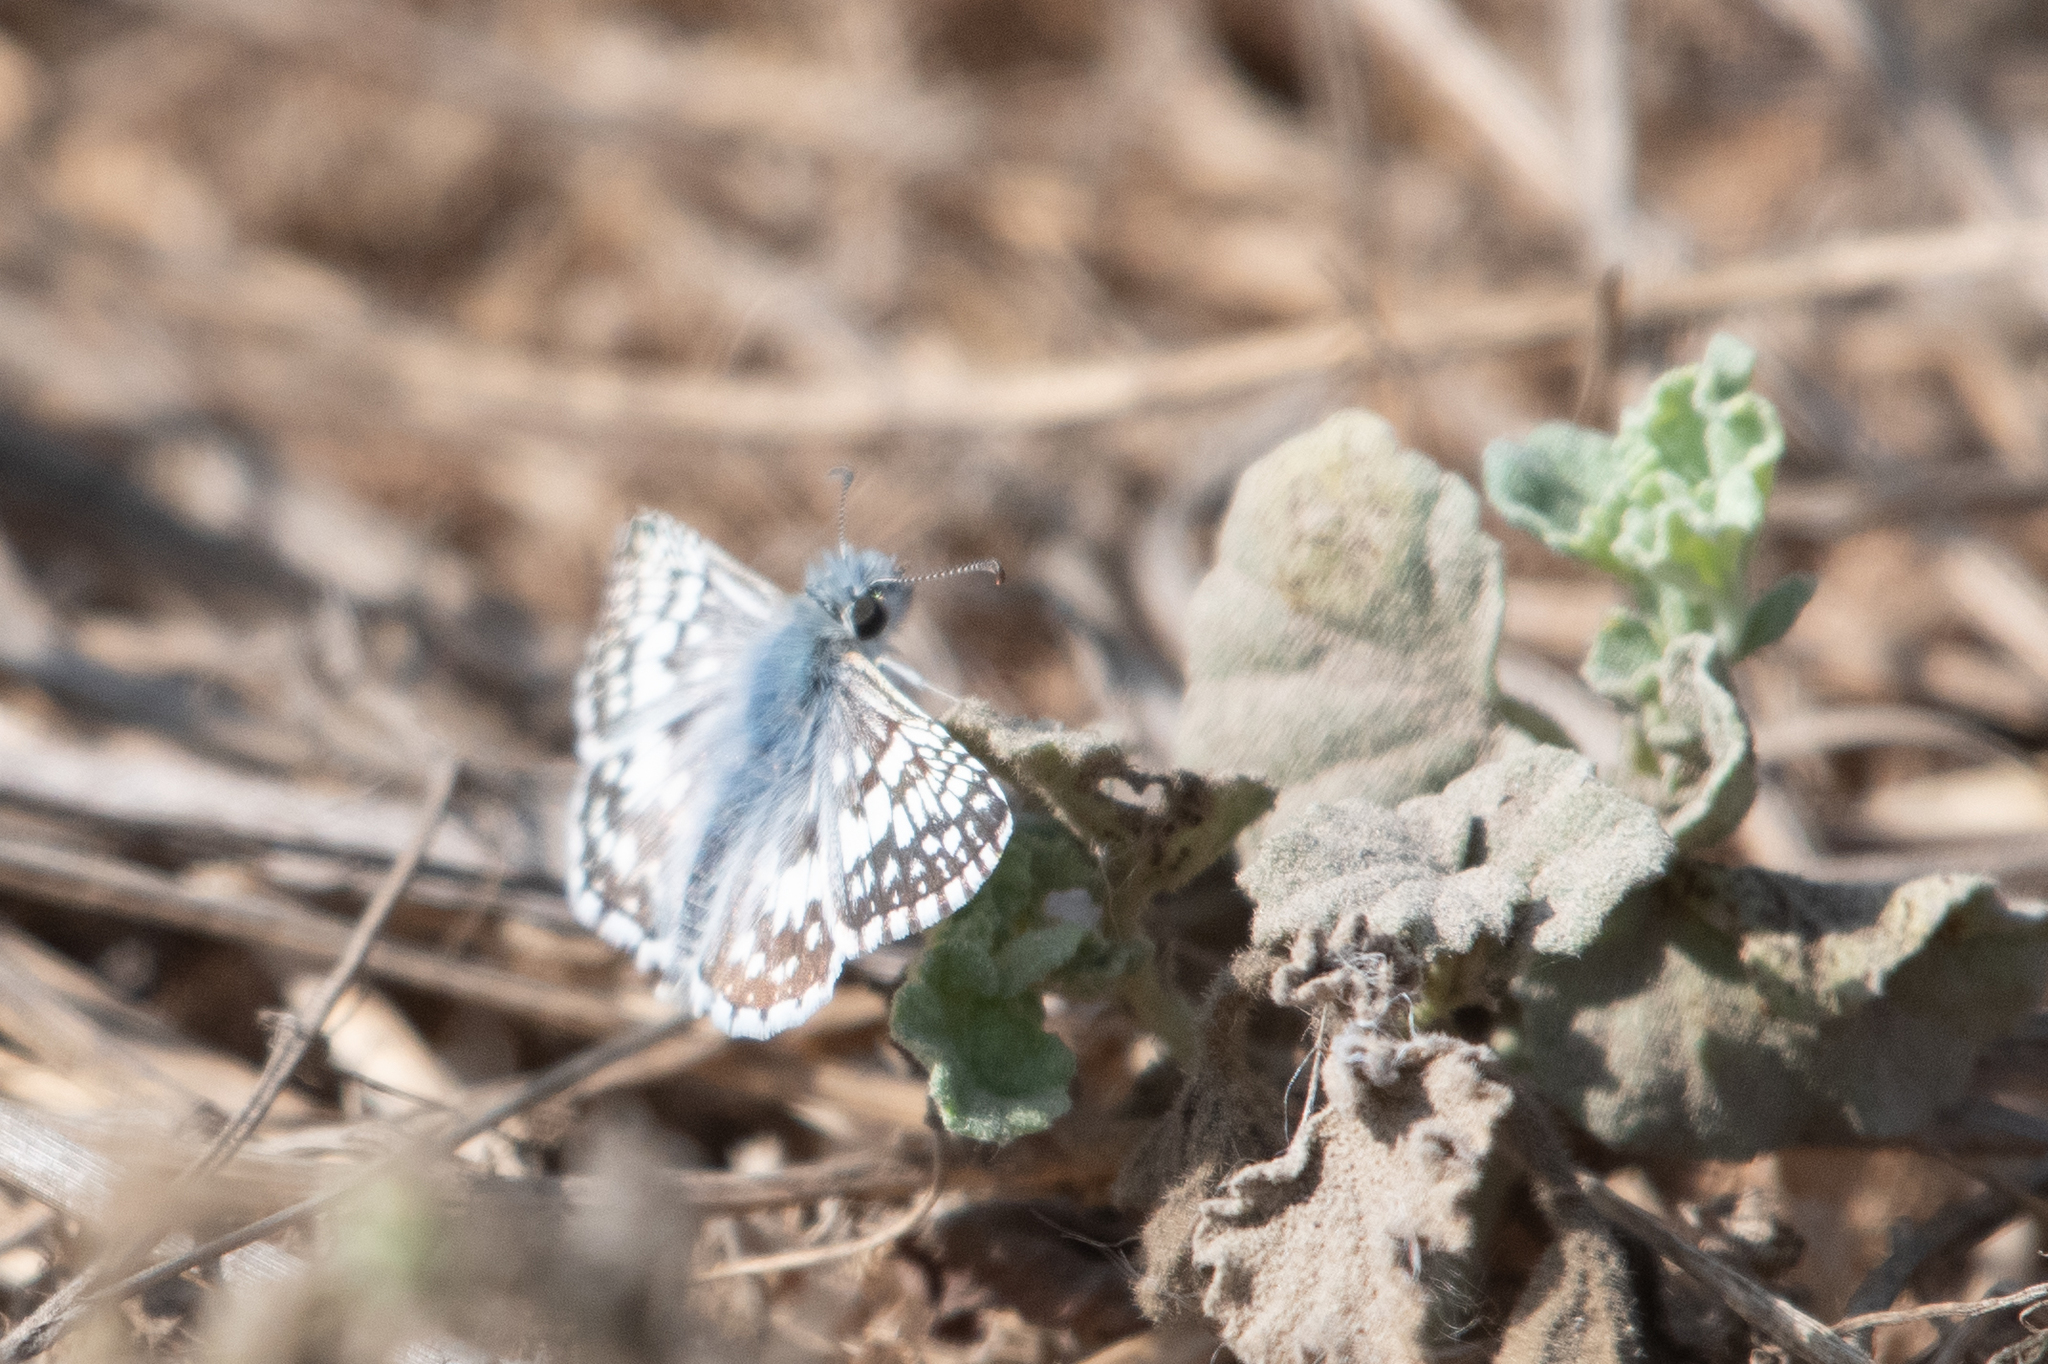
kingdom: Animalia
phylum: Arthropoda
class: Insecta
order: Lepidoptera
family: Hesperiidae
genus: Burnsius
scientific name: Burnsius communis
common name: Common checkered-skipper
